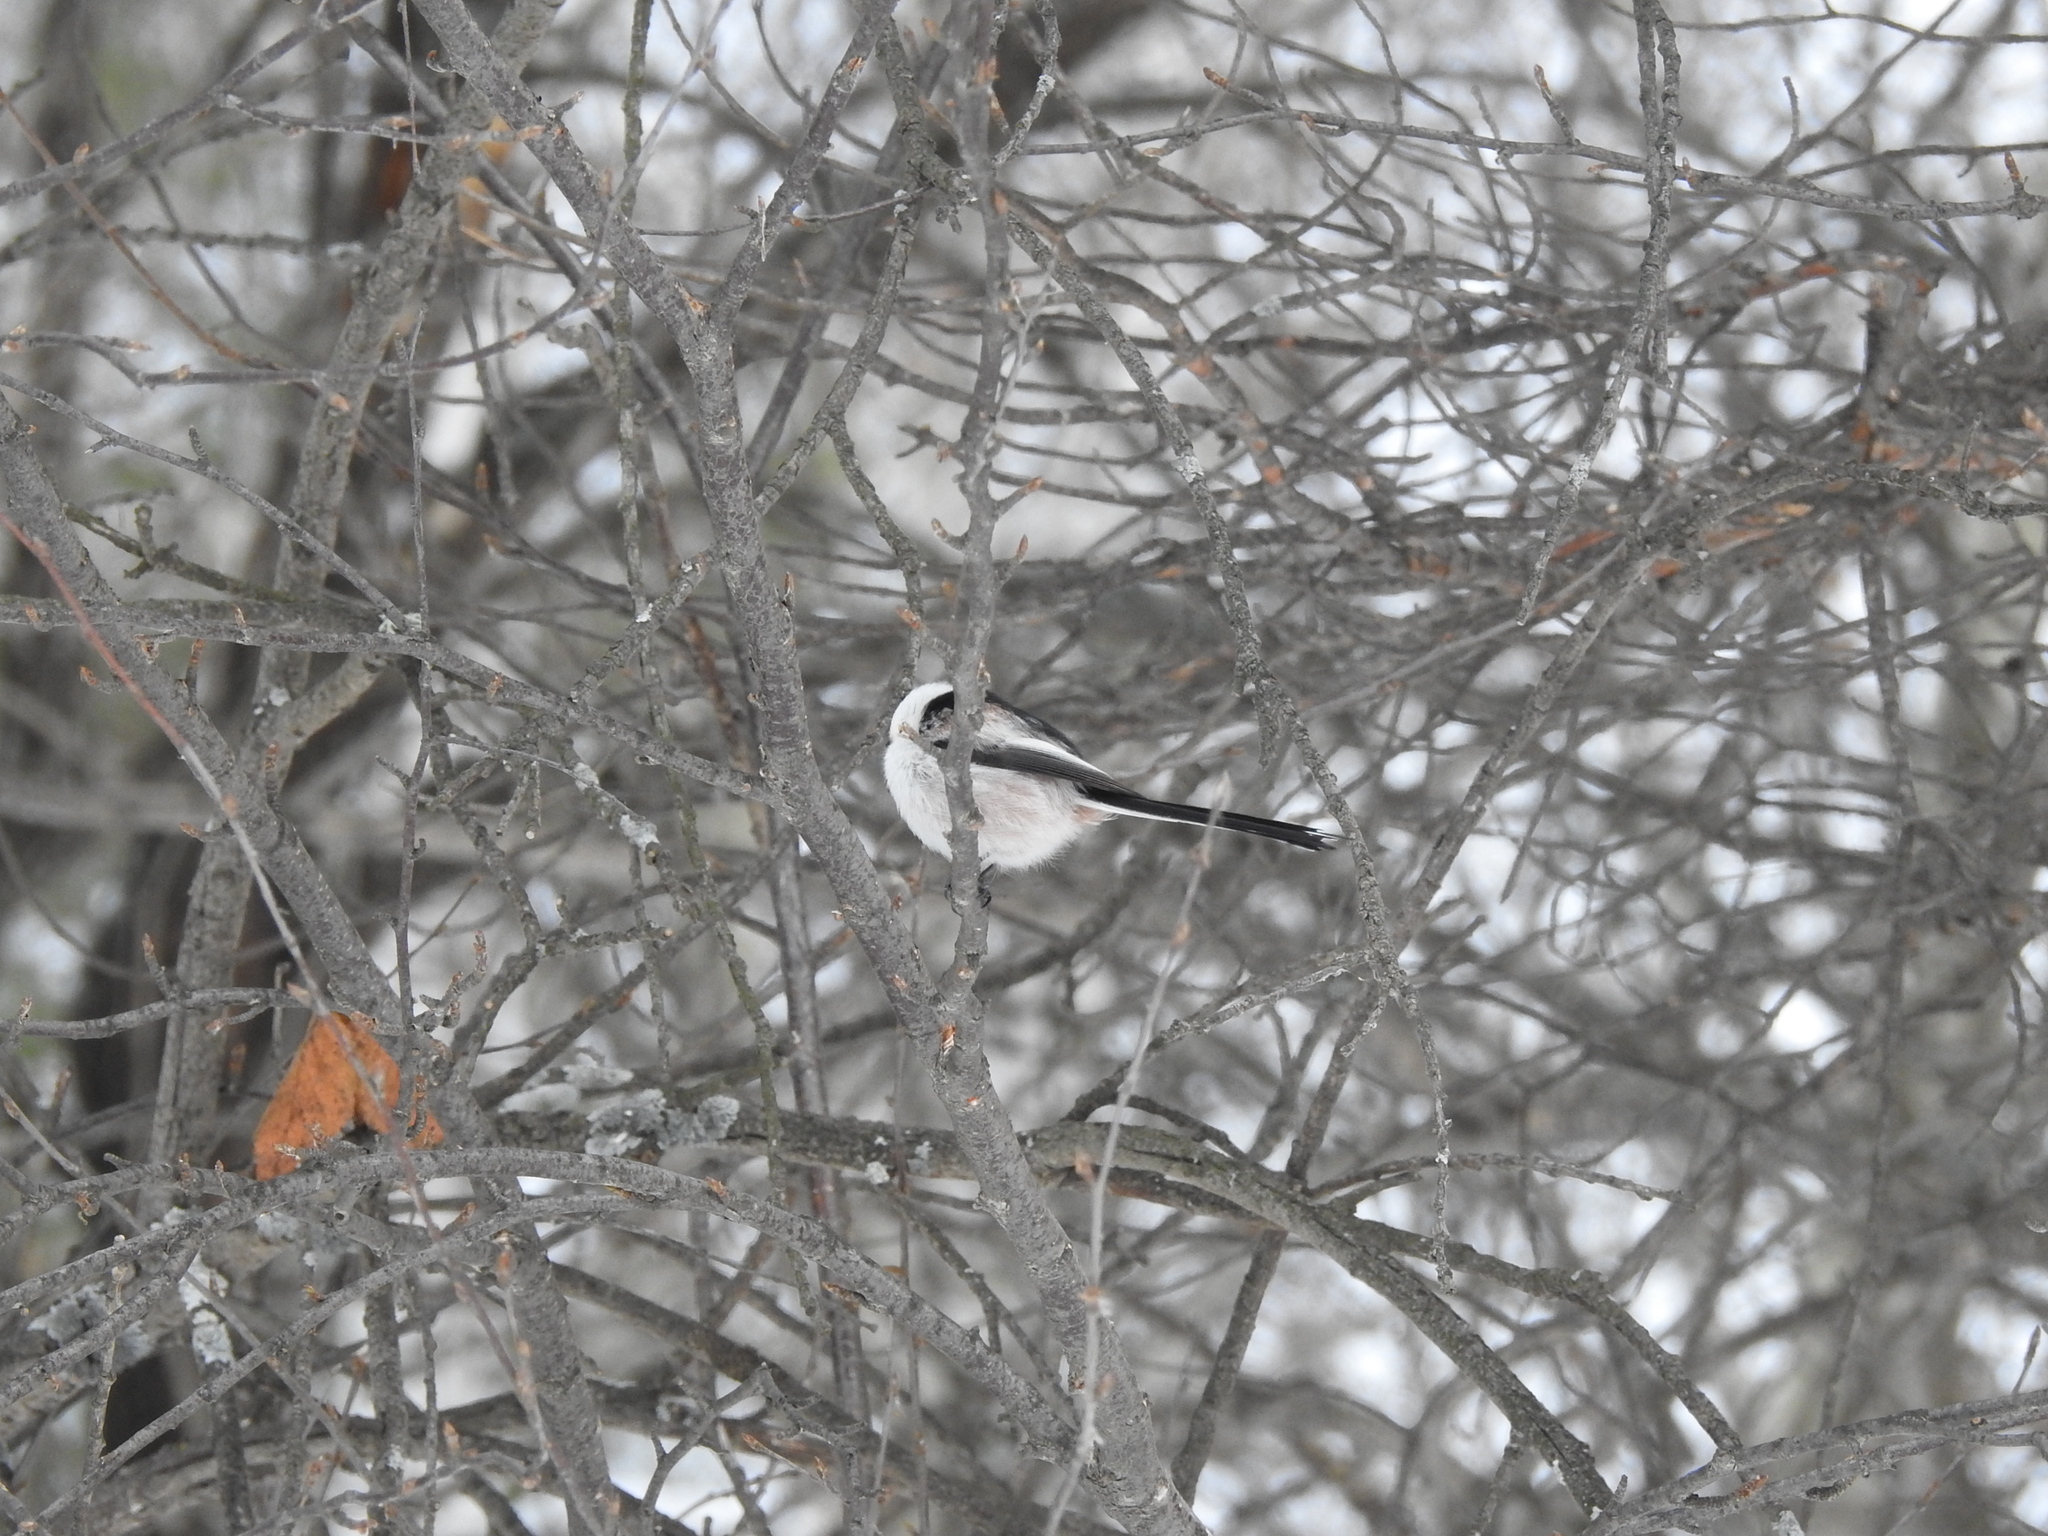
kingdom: Animalia
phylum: Chordata
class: Aves
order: Passeriformes
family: Aegithalidae
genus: Aegithalos
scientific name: Aegithalos caudatus
